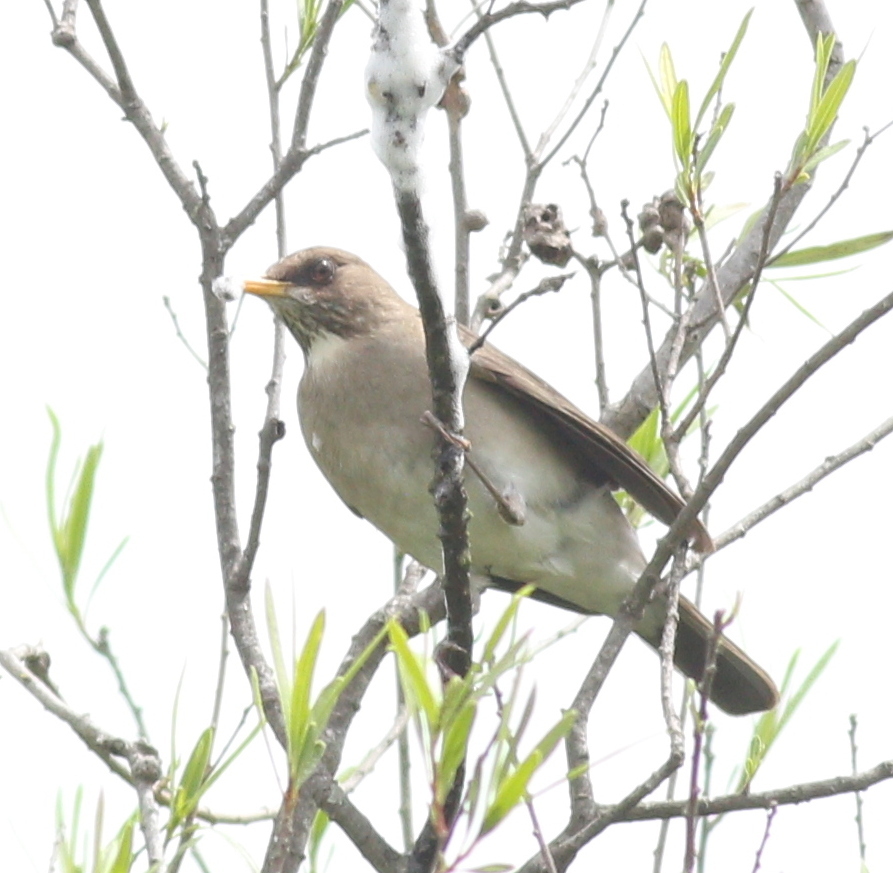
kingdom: Animalia
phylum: Chordata
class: Aves
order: Passeriformes
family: Turdidae
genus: Turdus
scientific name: Turdus amaurochalinus
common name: Creamy-bellied thrush
